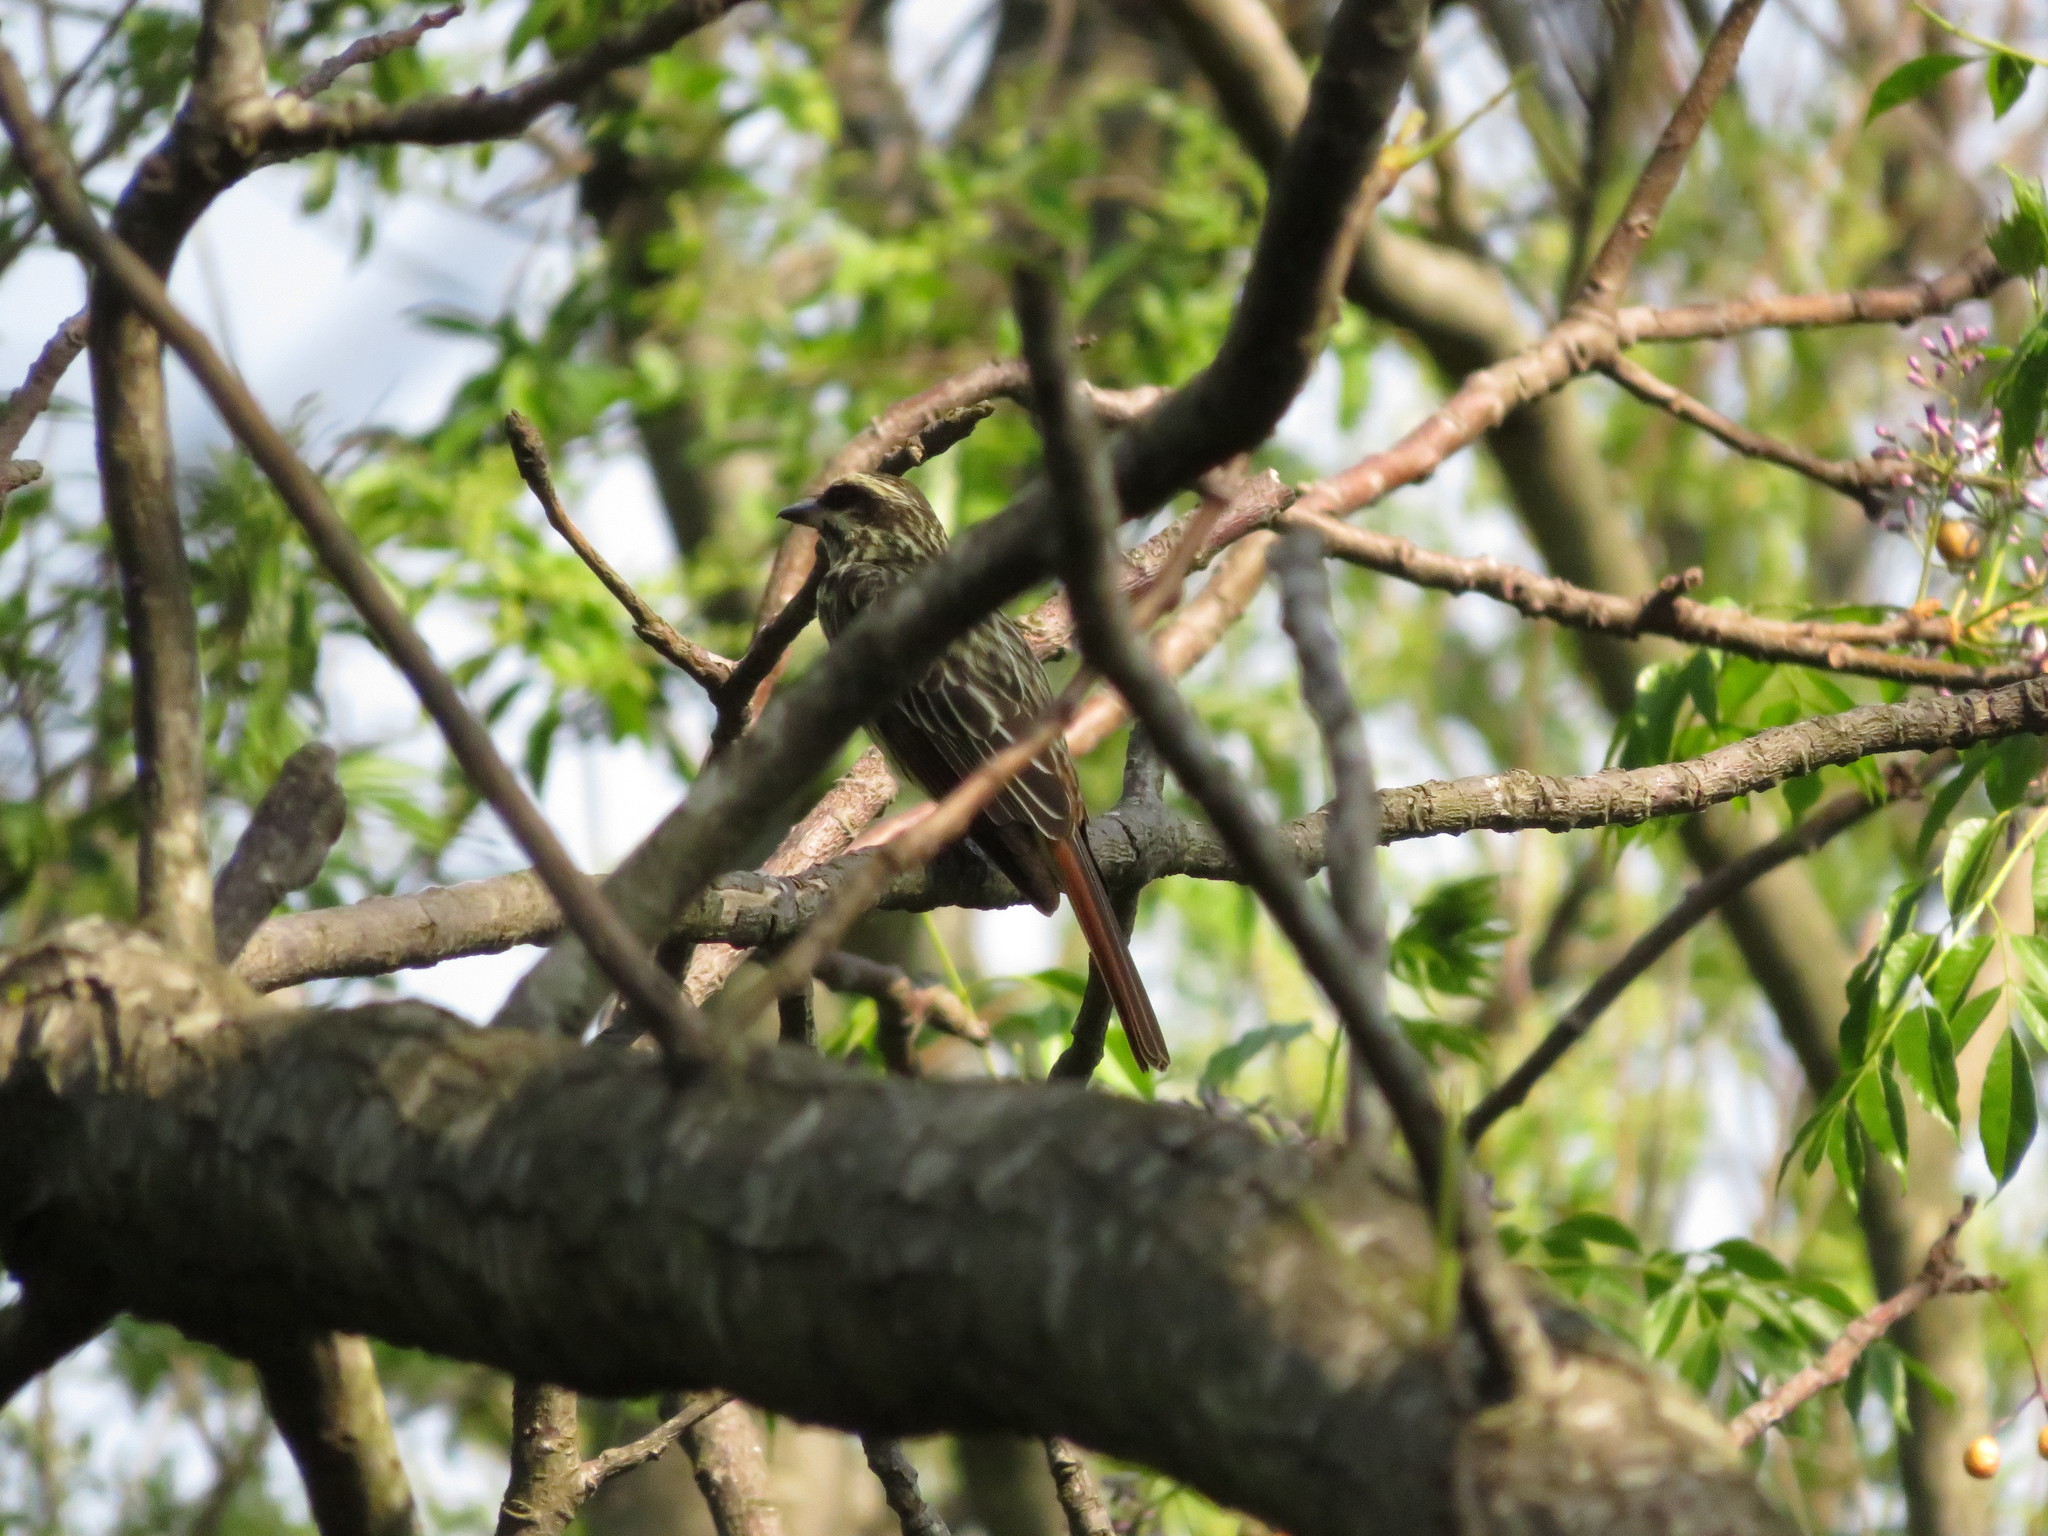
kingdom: Animalia
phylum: Chordata
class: Aves
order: Passeriformes
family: Tyrannidae
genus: Myiodynastes
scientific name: Myiodynastes maculatus
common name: Streaked flycatcher
